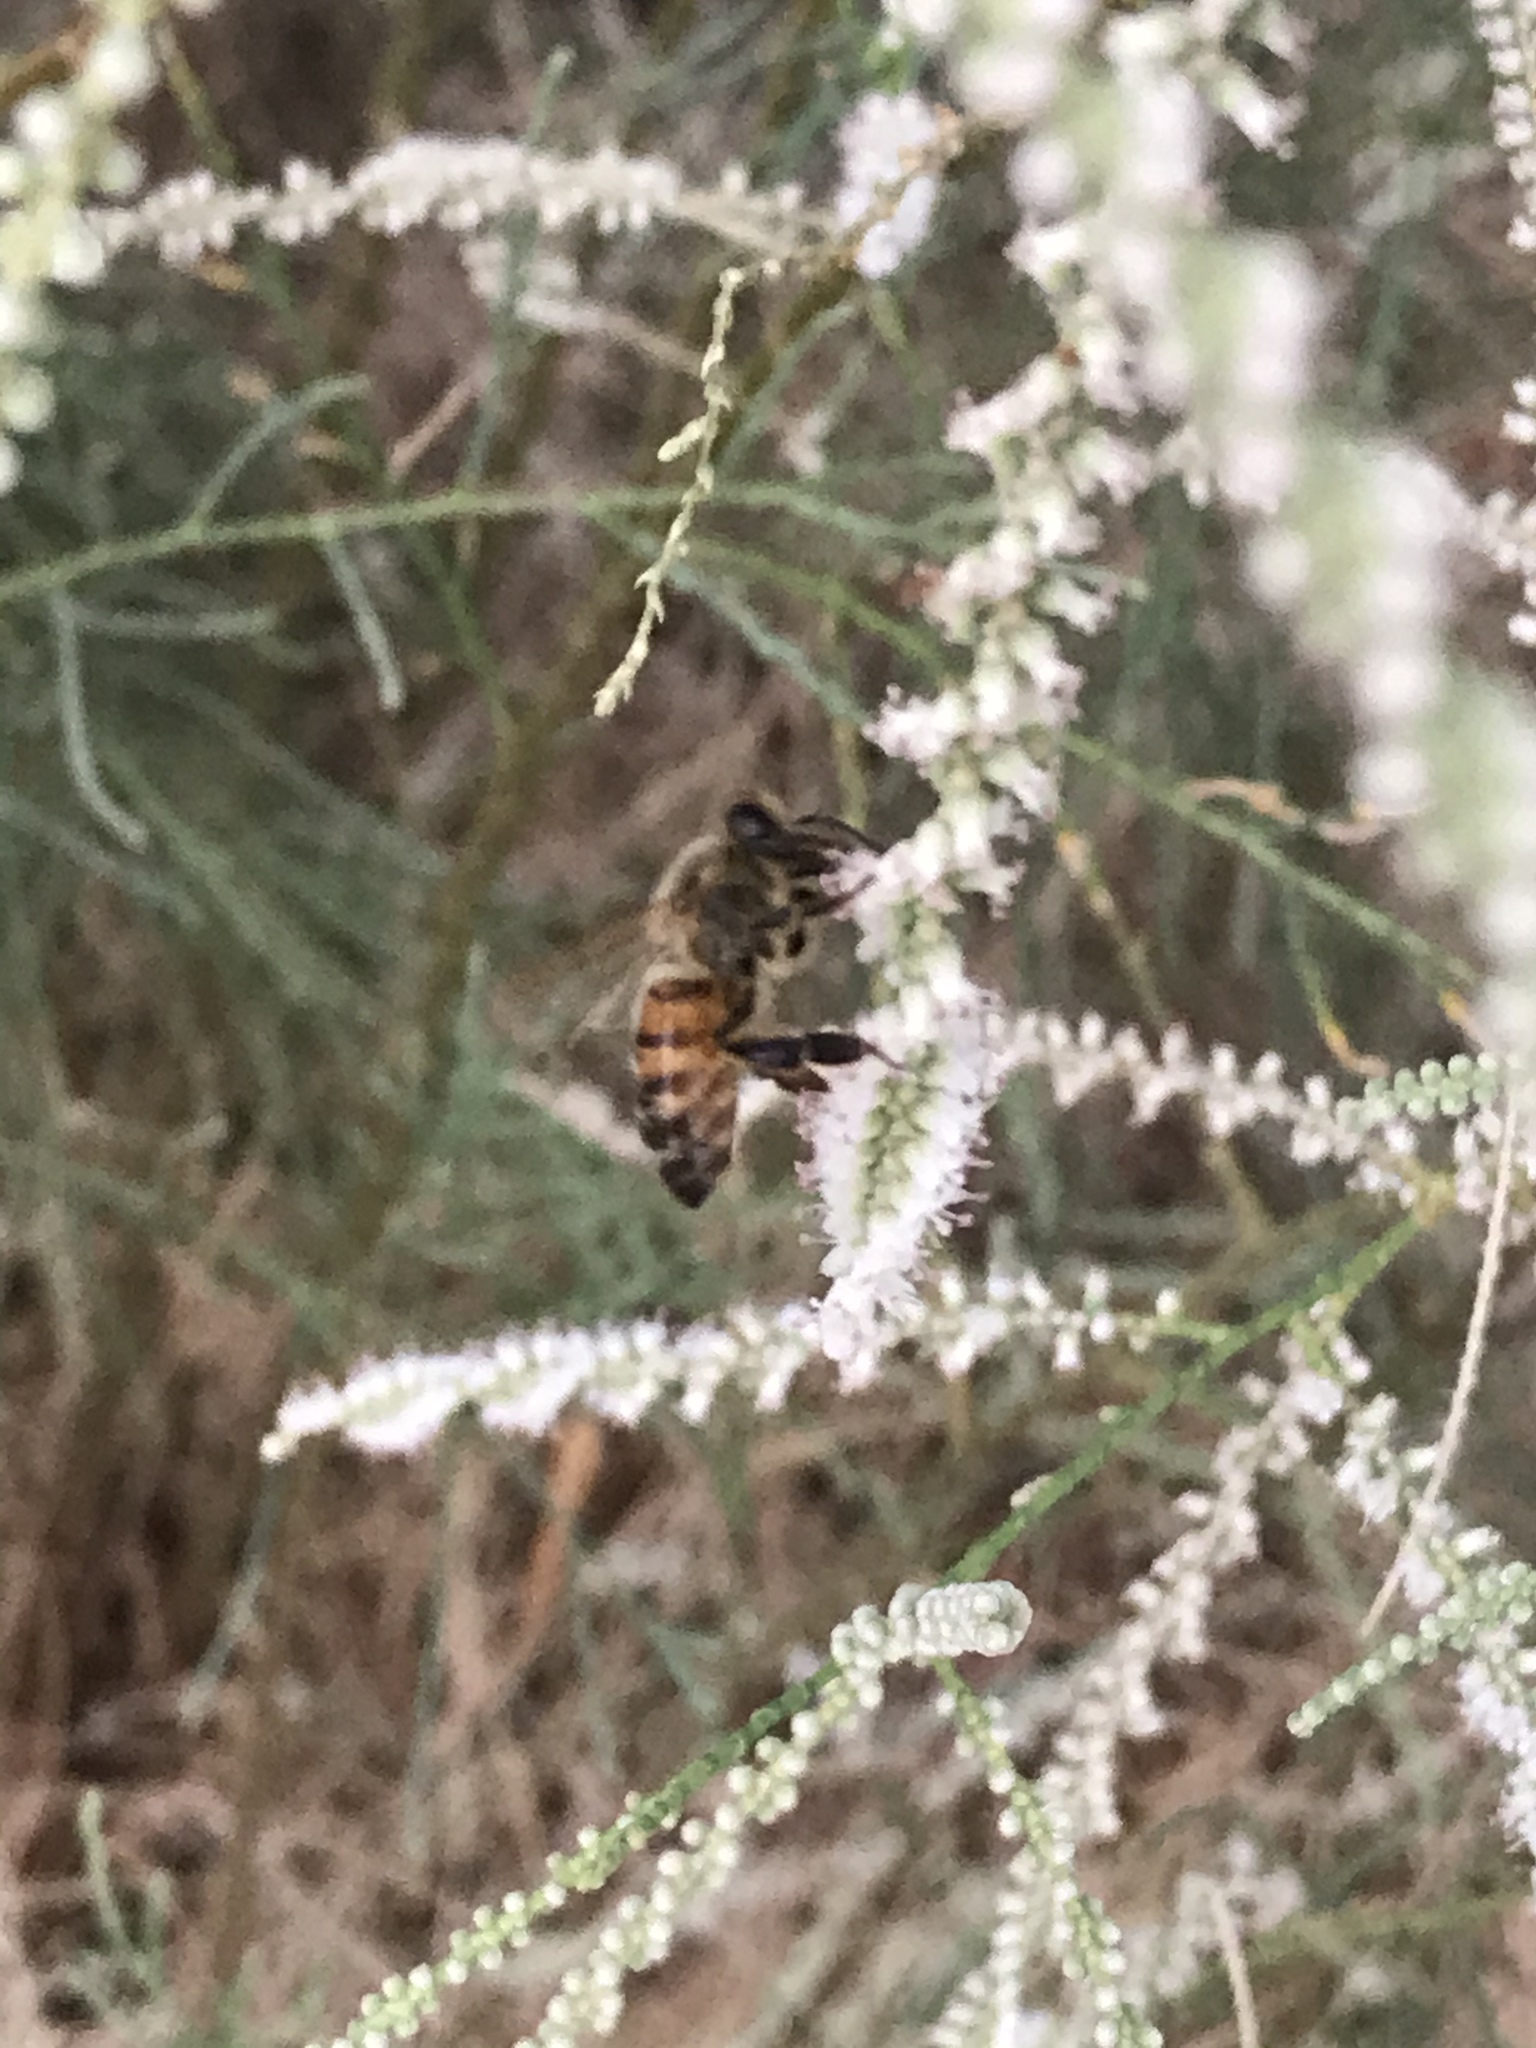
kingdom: Animalia
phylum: Arthropoda
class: Insecta
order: Hymenoptera
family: Apidae
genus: Apis
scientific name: Apis mellifera
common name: Honey bee
